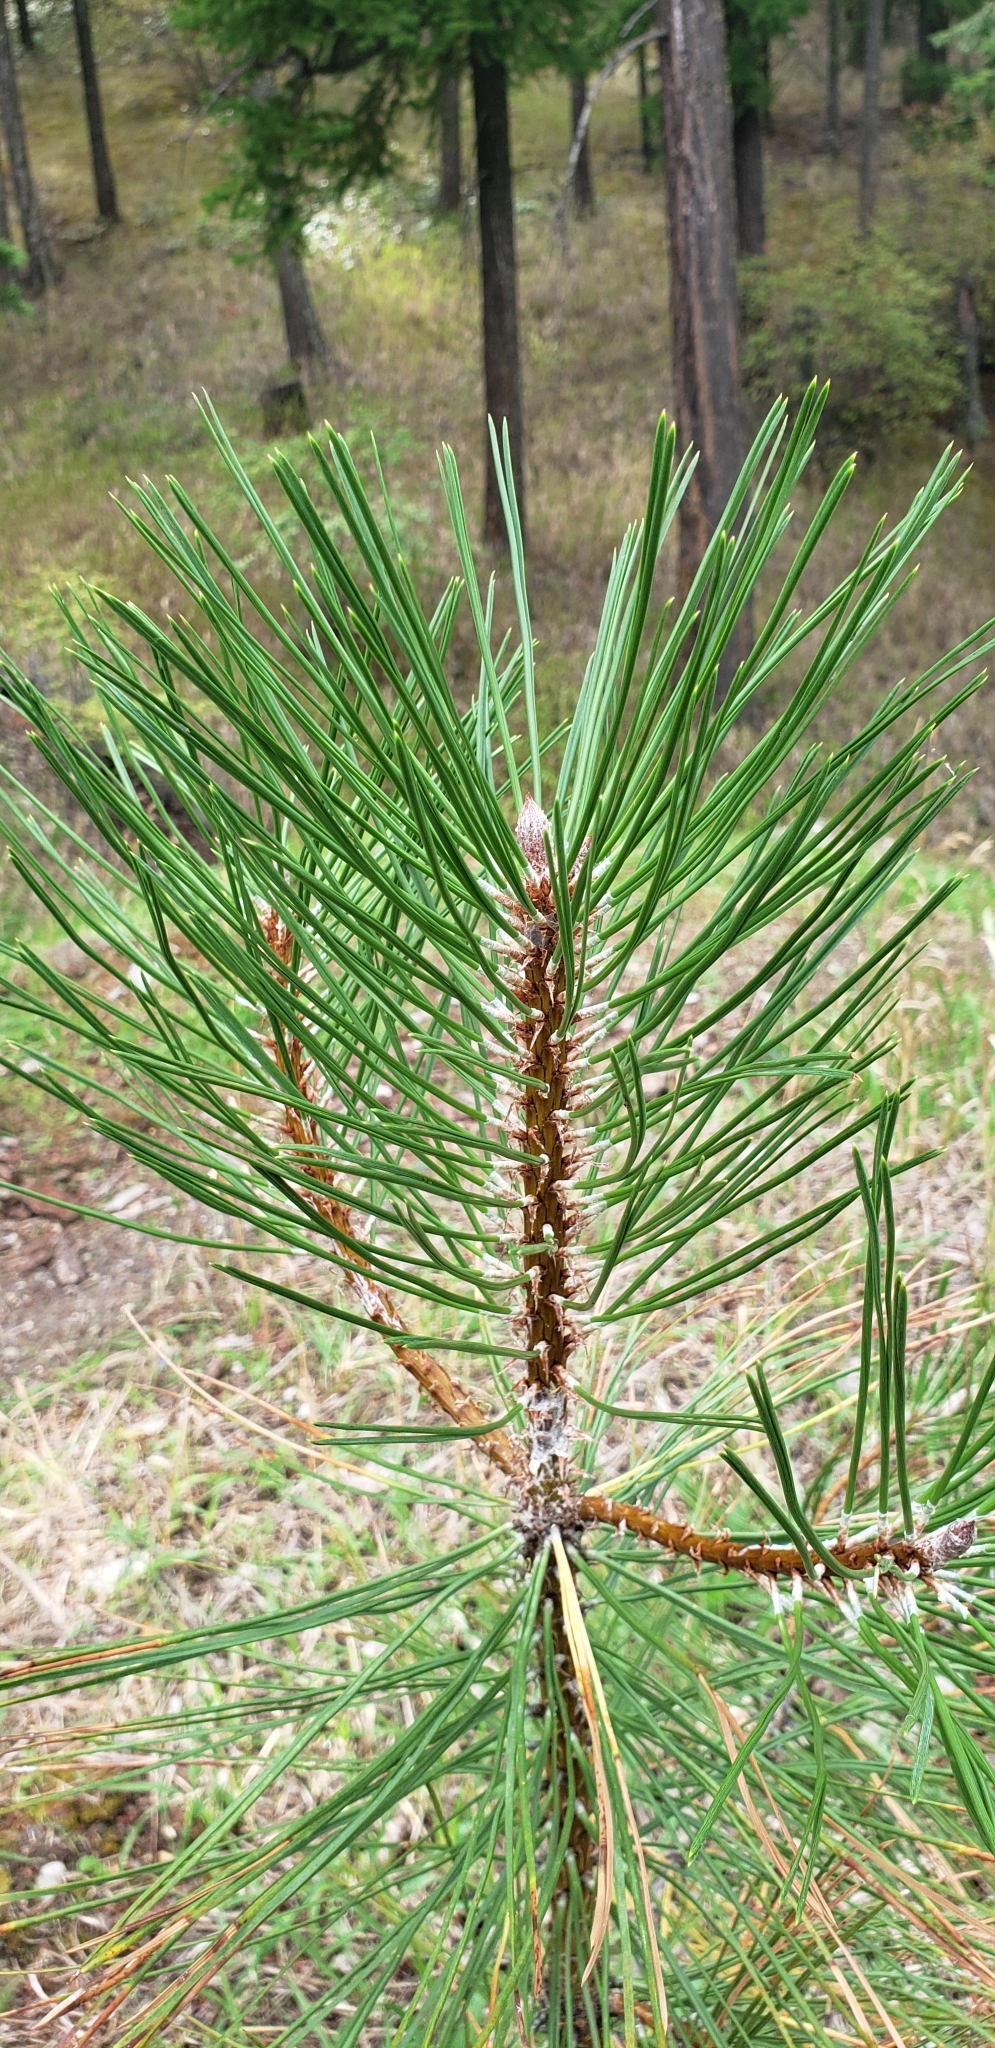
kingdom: Plantae
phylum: Tracheophyta
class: Pinopsida
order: Pinales
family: Pinaceae
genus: Pinus
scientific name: Pinus ponderosa
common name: Western yellow-pine
